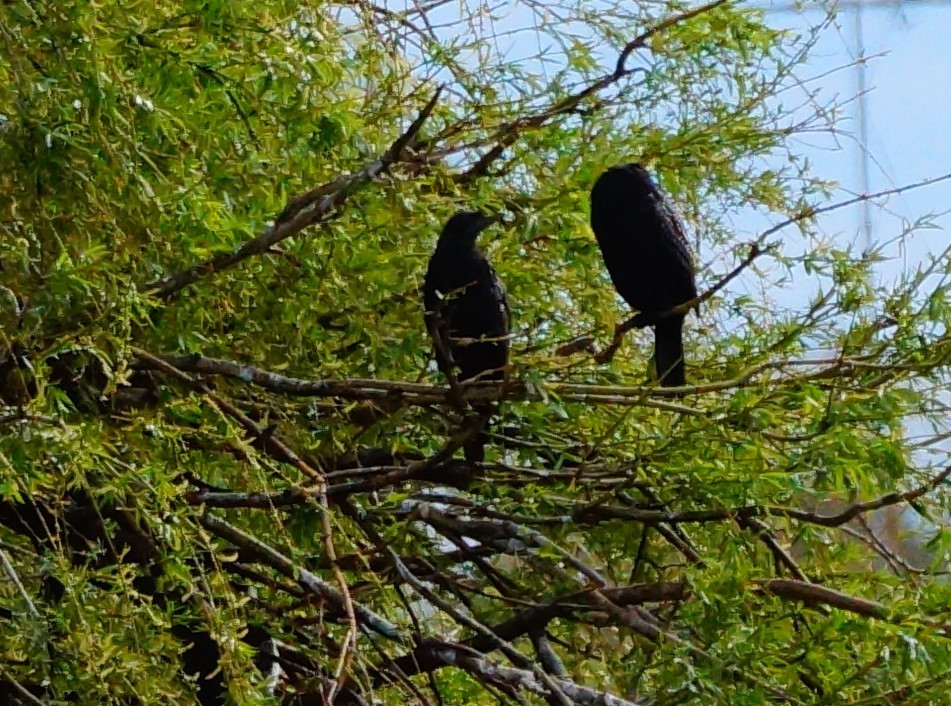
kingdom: Animalia
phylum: Chordata
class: Aves
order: Suliformes
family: Phalacrocoracidae
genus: Phalacrocorax
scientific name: Phalacrocorax sulcirostris
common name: Little black cormorant
